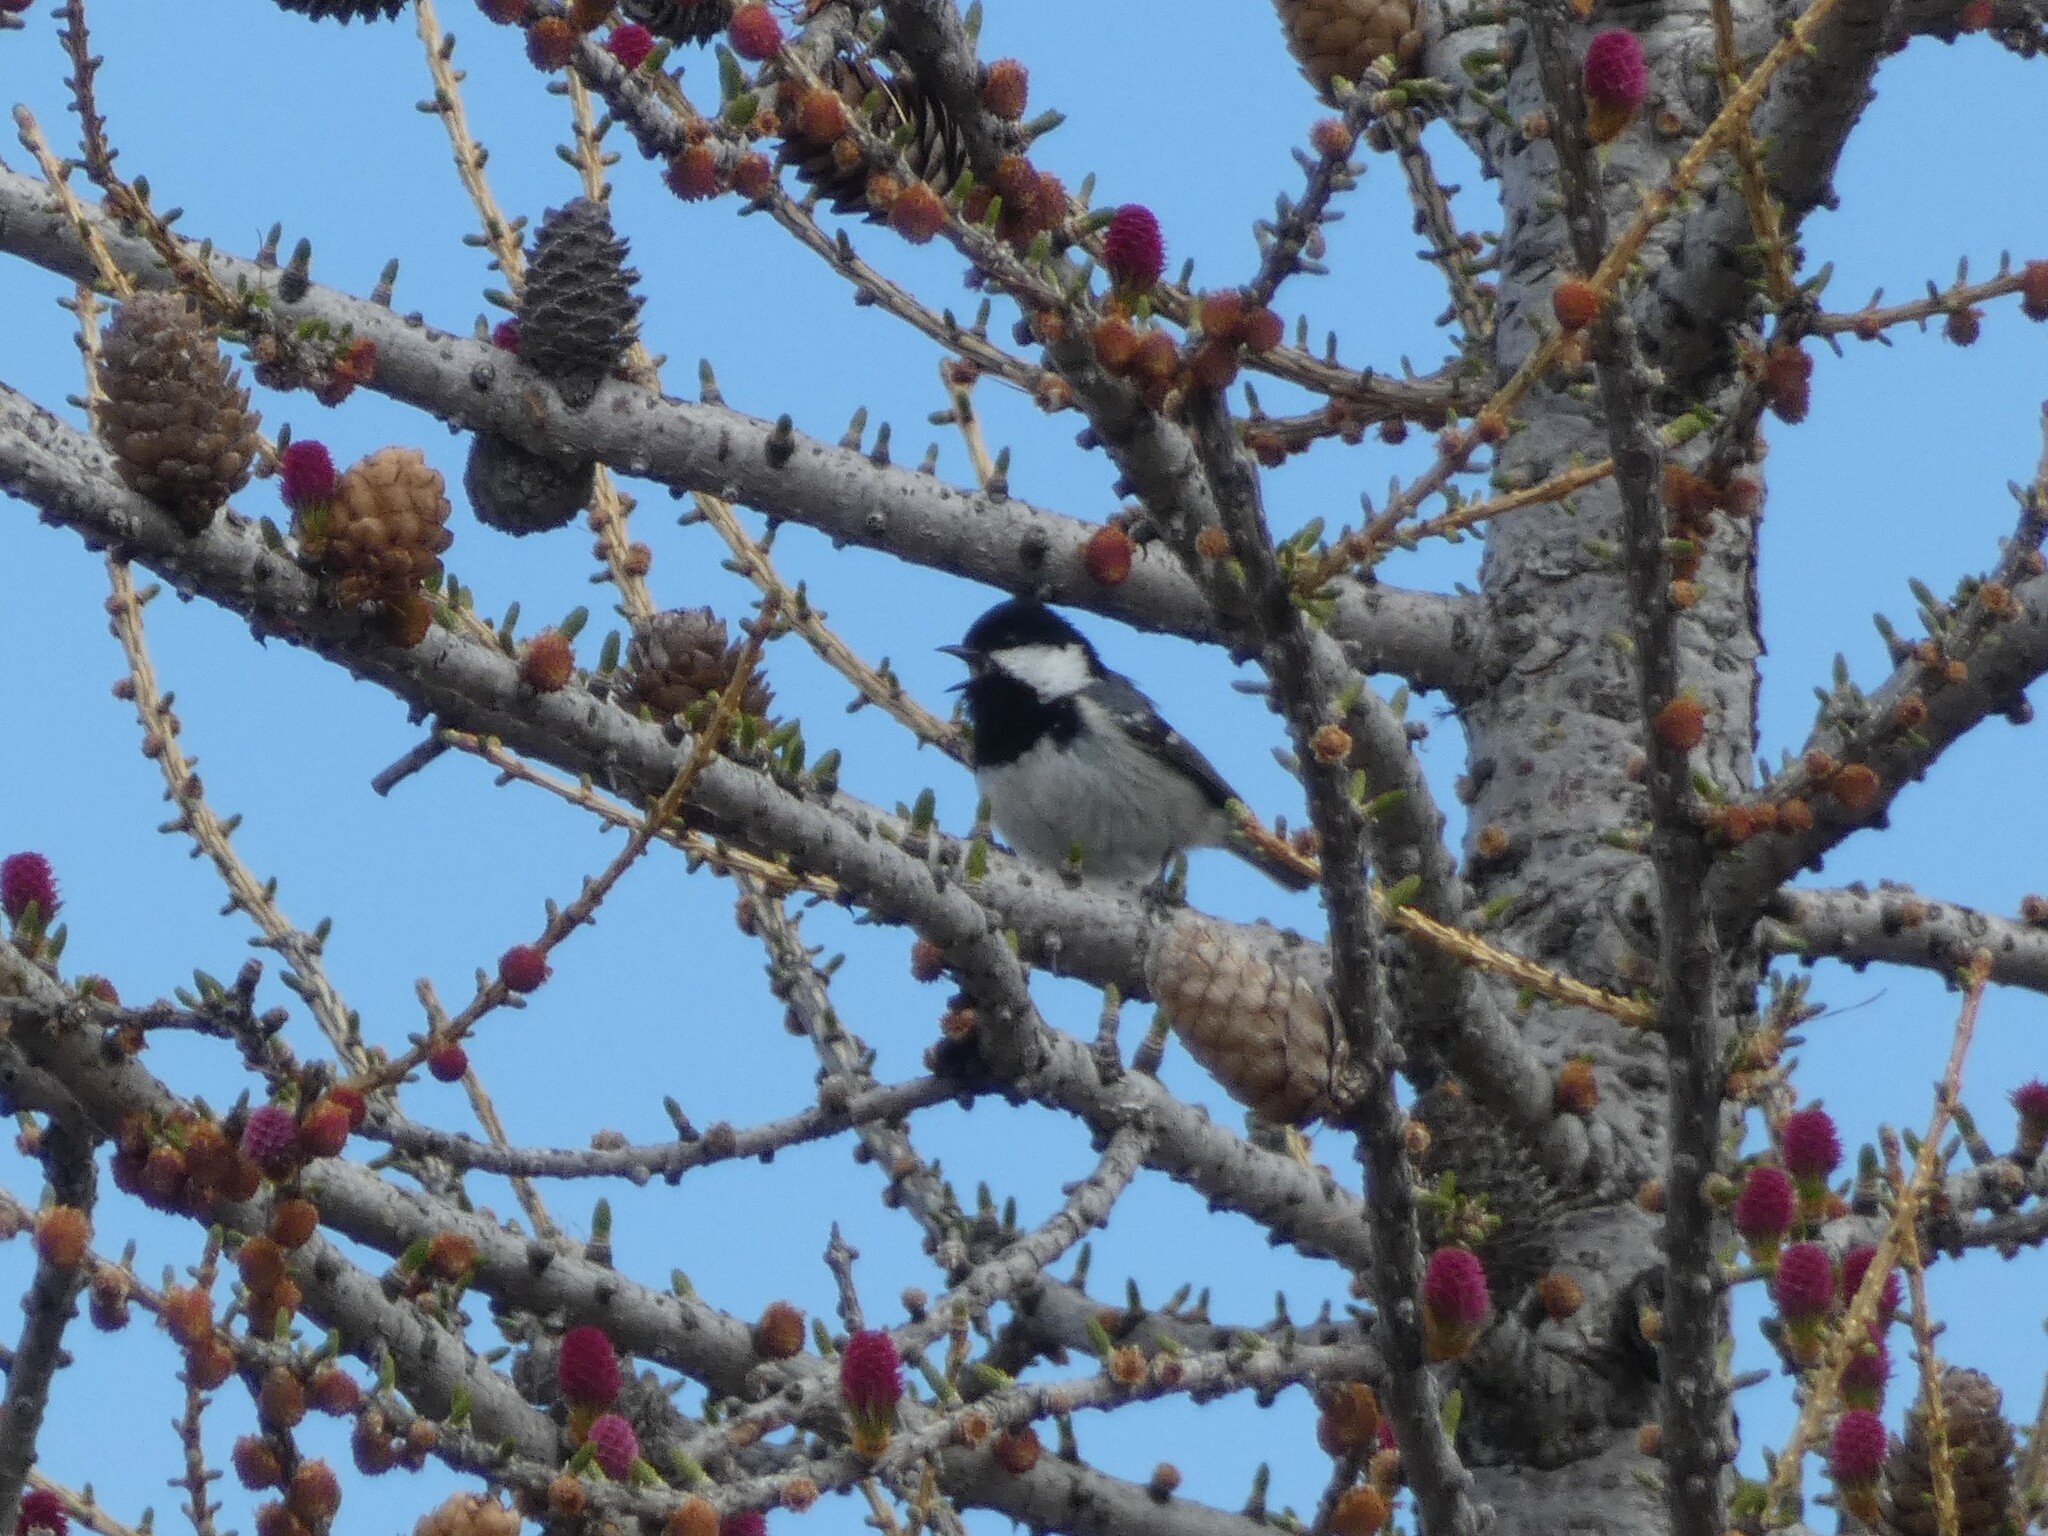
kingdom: Animalia
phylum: Chordata
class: Aves
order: Passeriformes
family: Paridae
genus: Periparus
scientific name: Periparus ater
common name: Coal tit
